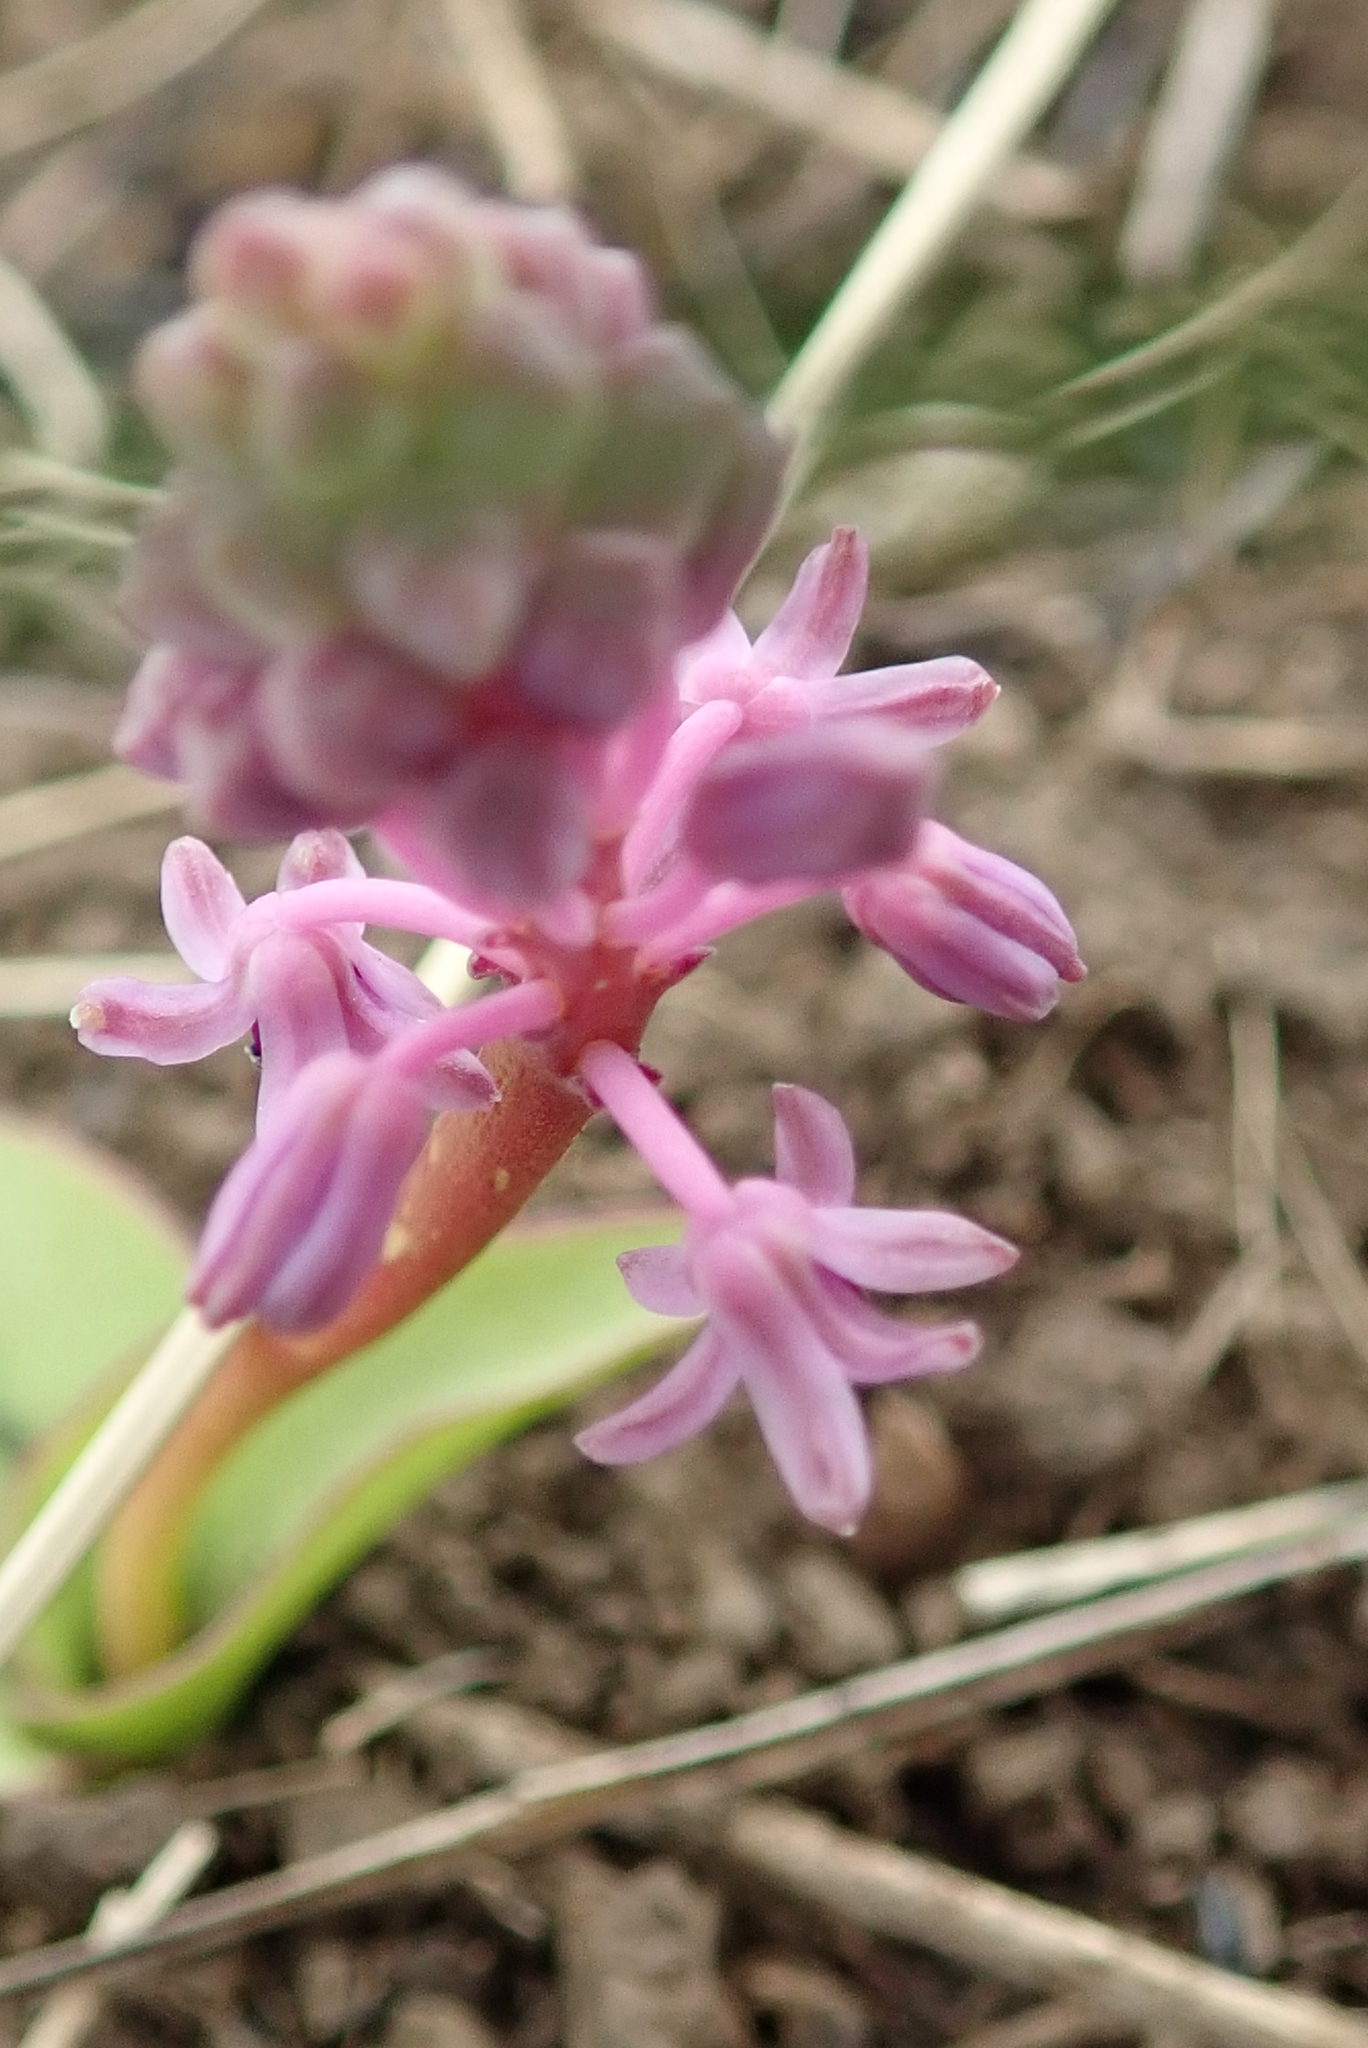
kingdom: Plantae
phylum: Tracheophyta
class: Liliopsida
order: Asparagales
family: Asparagaceae
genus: Ledebouria
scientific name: Ledebouria sandersonii
